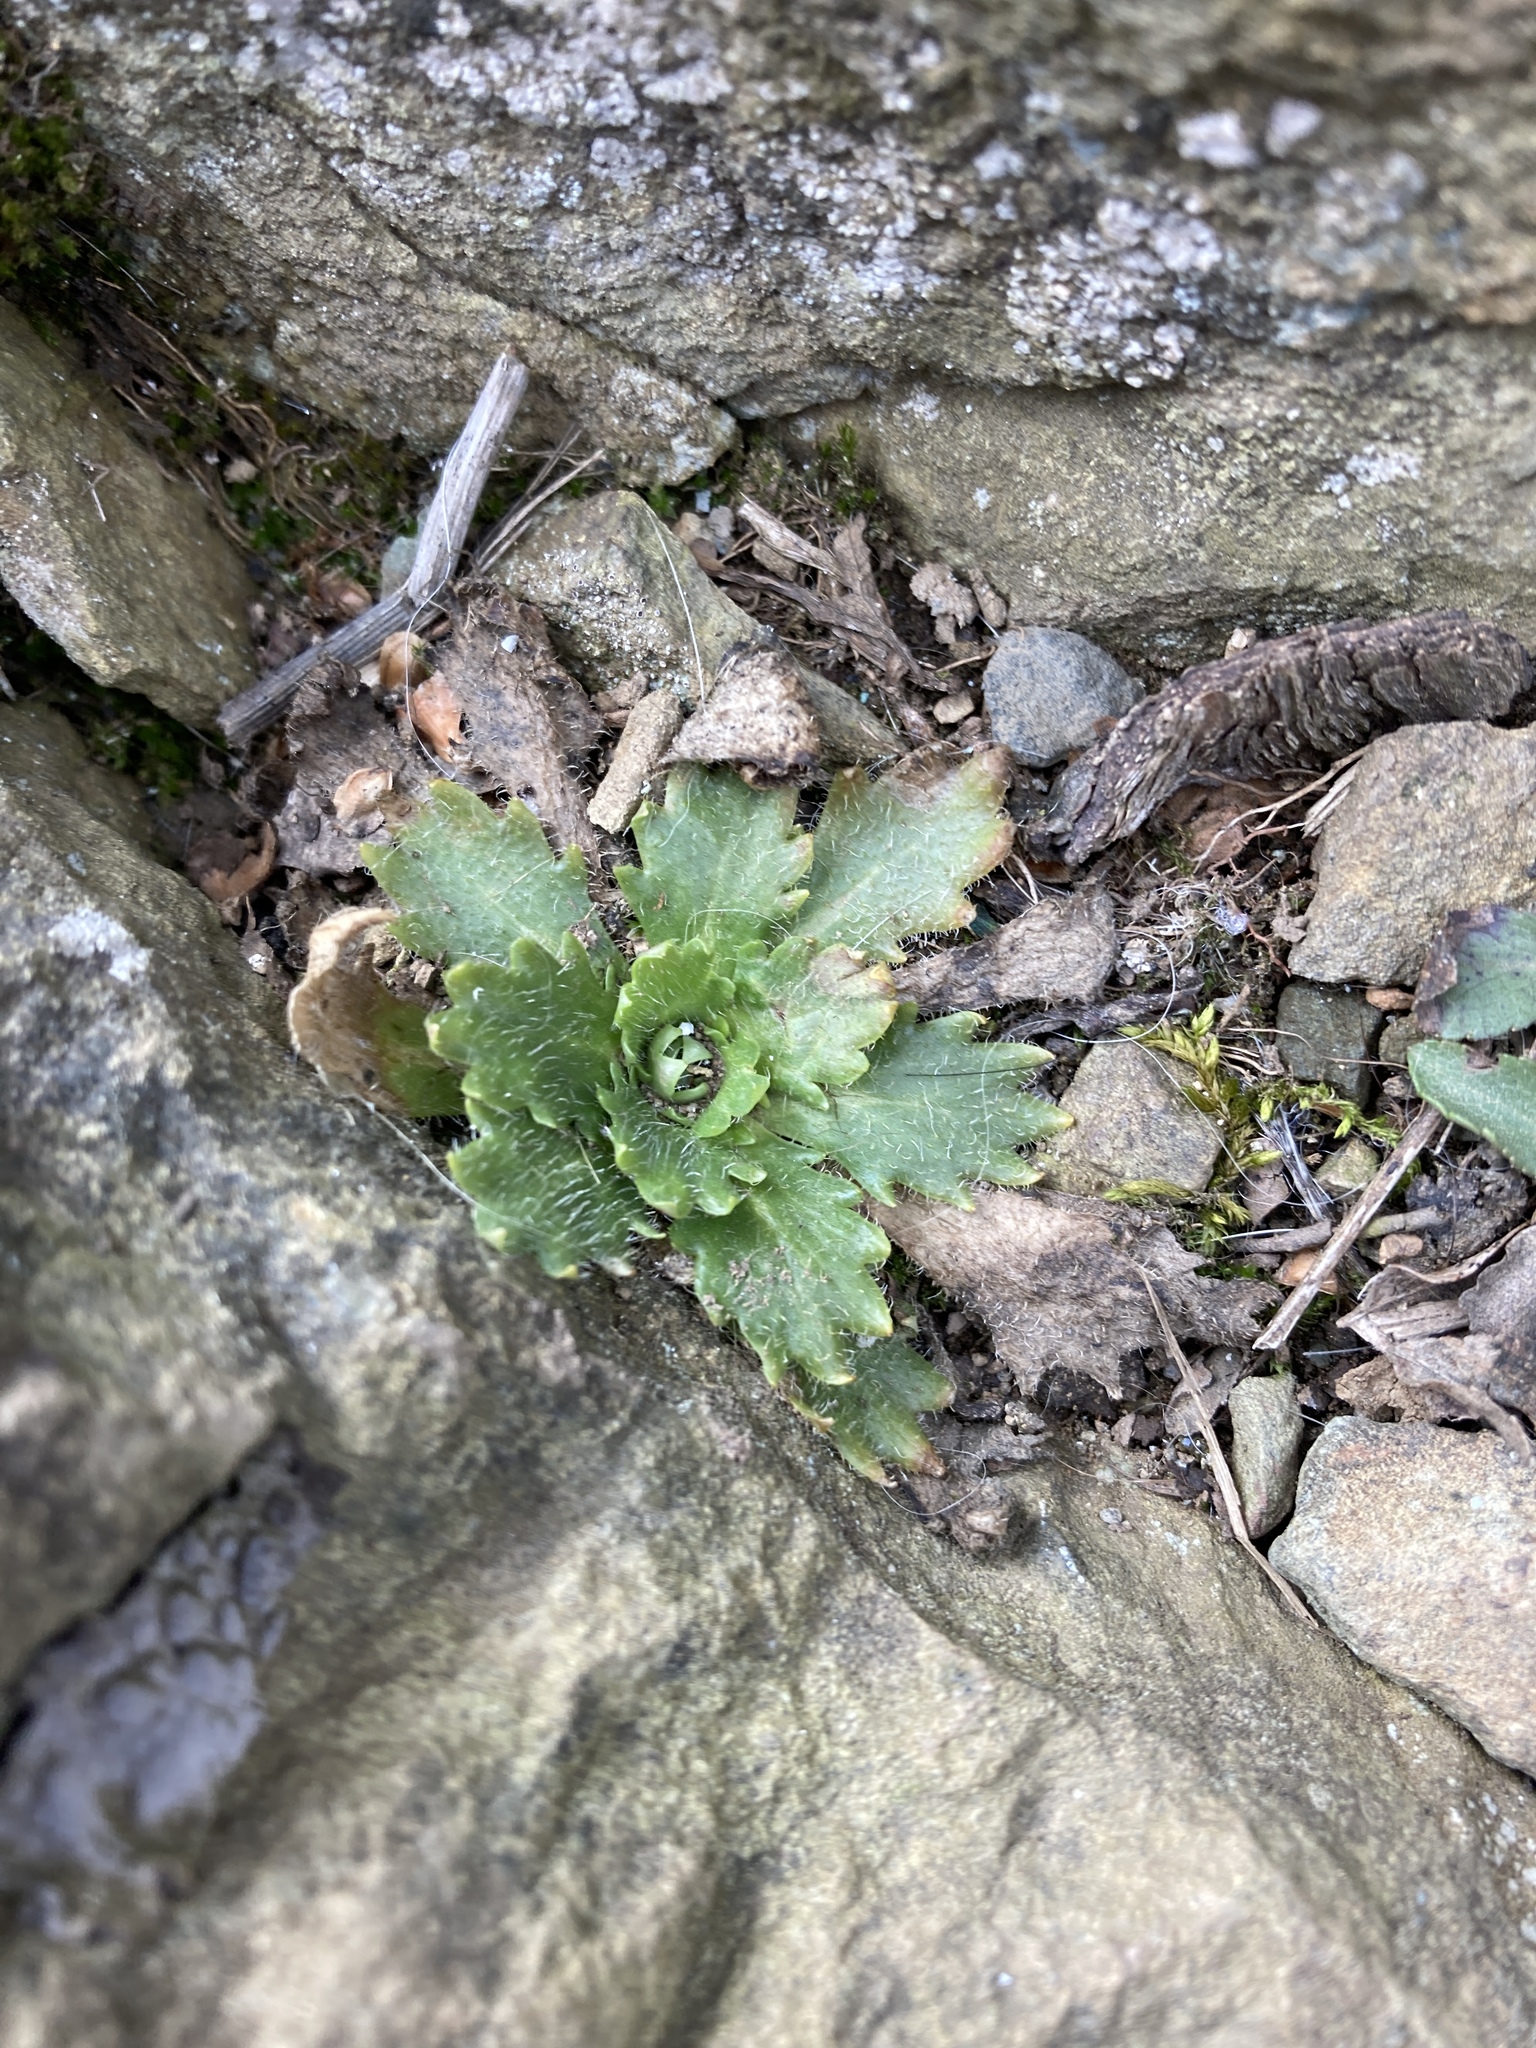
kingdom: Plantae
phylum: Tracheophyta
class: Magnoliopsida
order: Saxifragales
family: Saxifragaceae
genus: Micranthes
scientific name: Micranthes petiolaris
